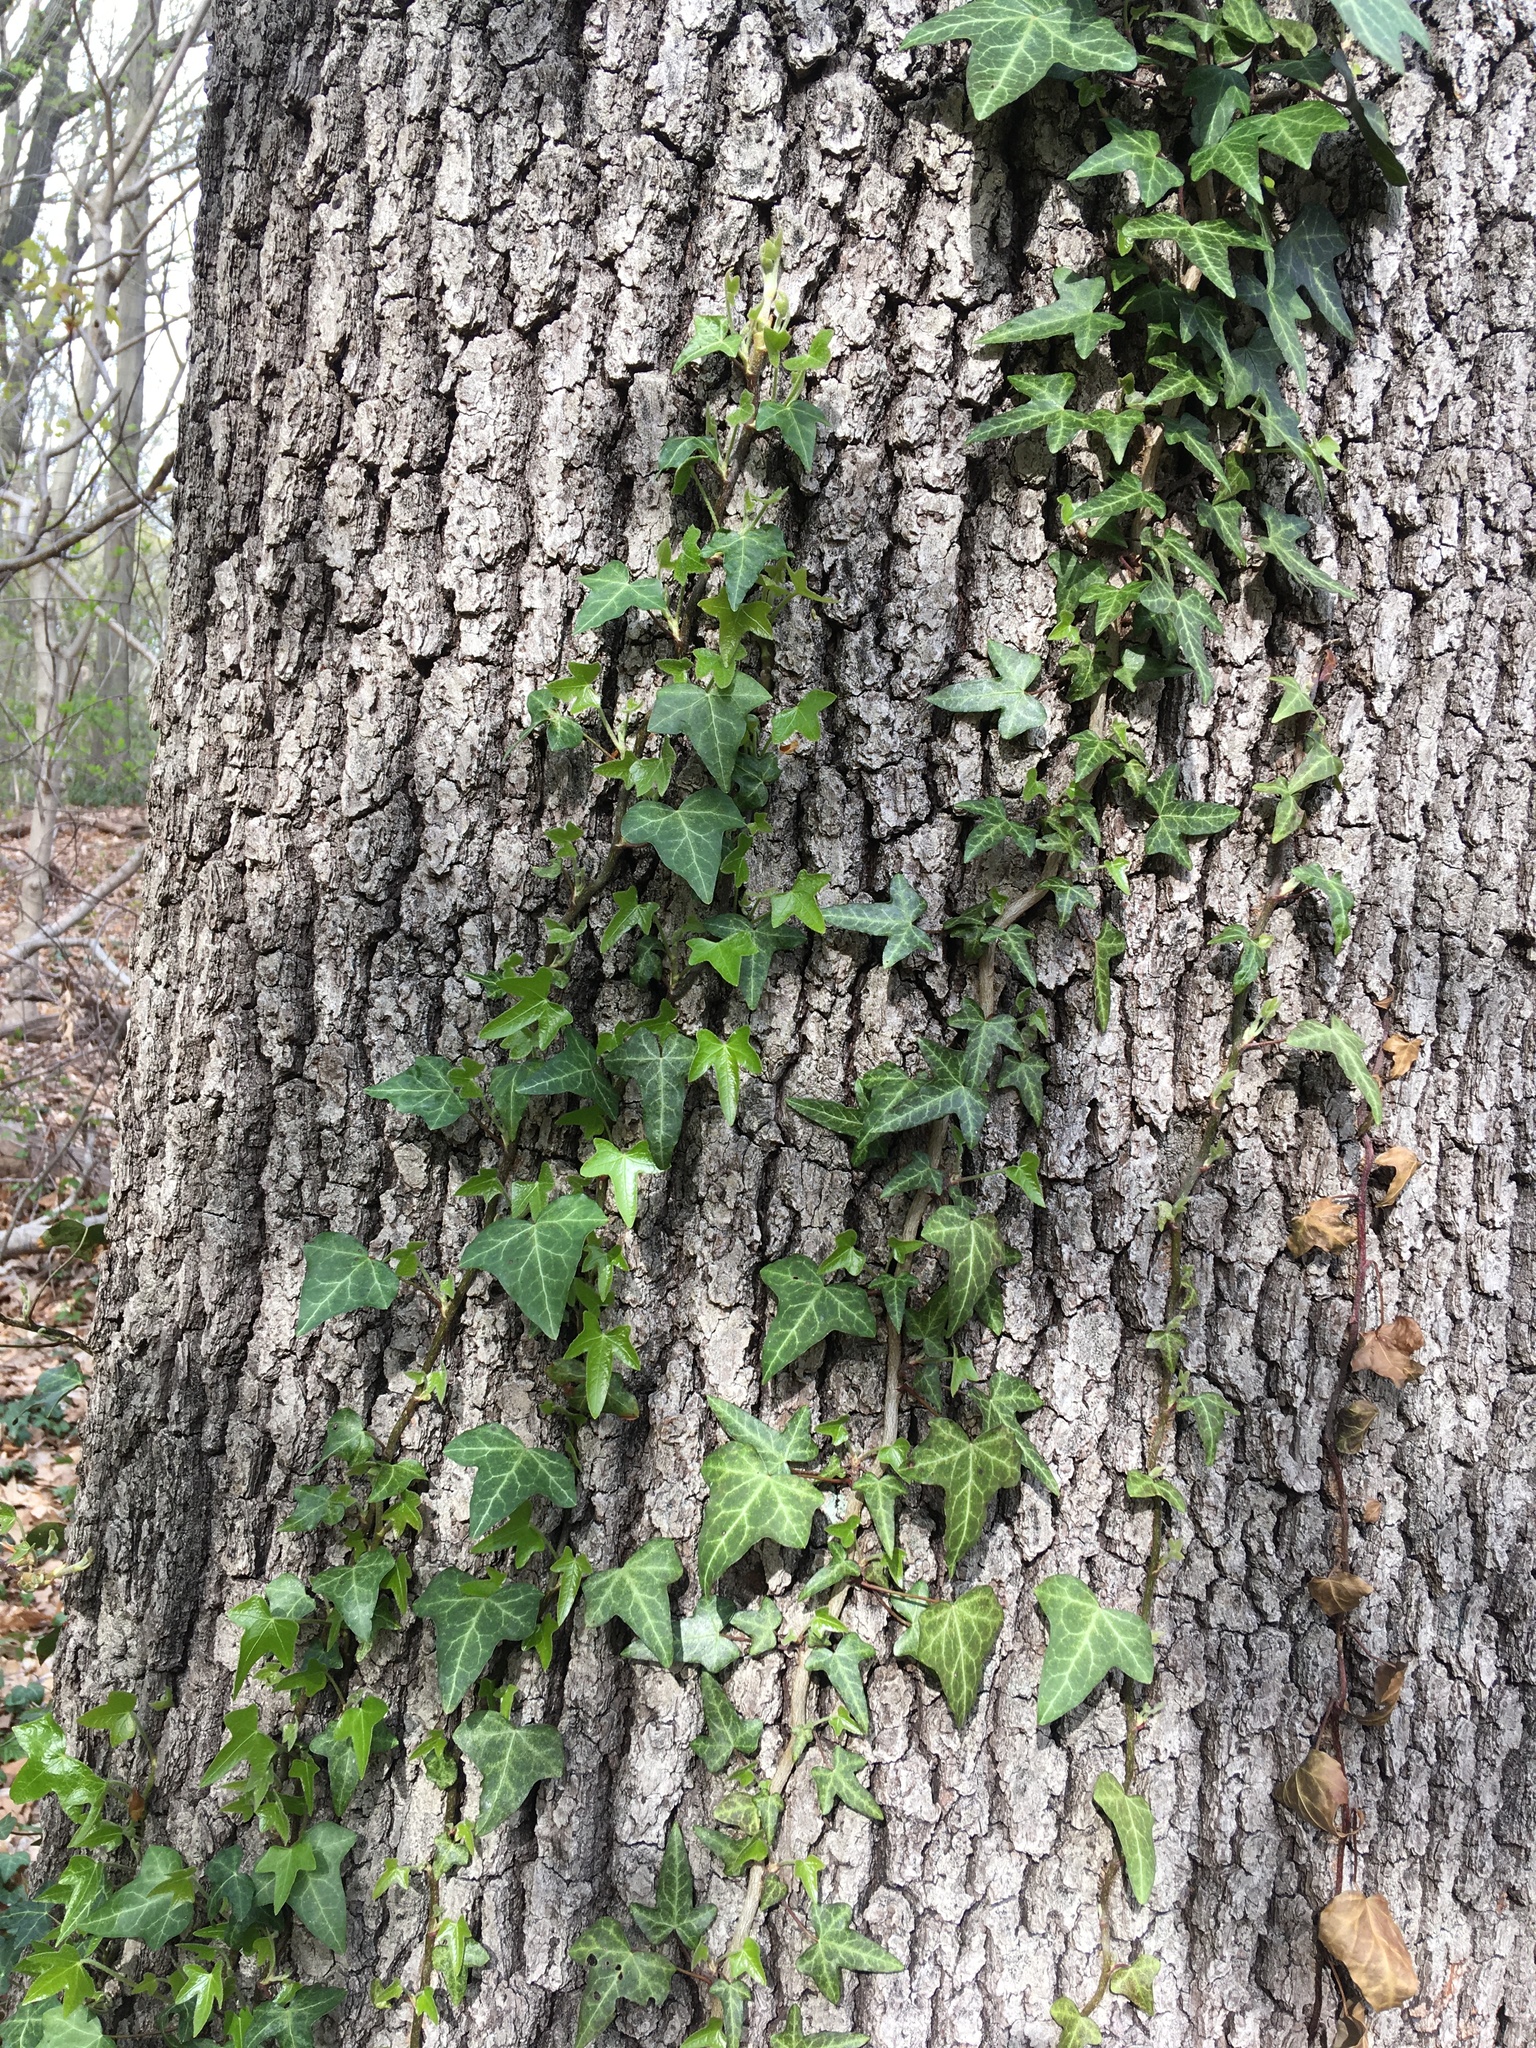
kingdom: Plantae
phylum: Tracheophyta
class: Magnoliopsida
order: Apiales
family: Araliaceae
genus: Hedera
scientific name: Hedera helix
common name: Ivy
